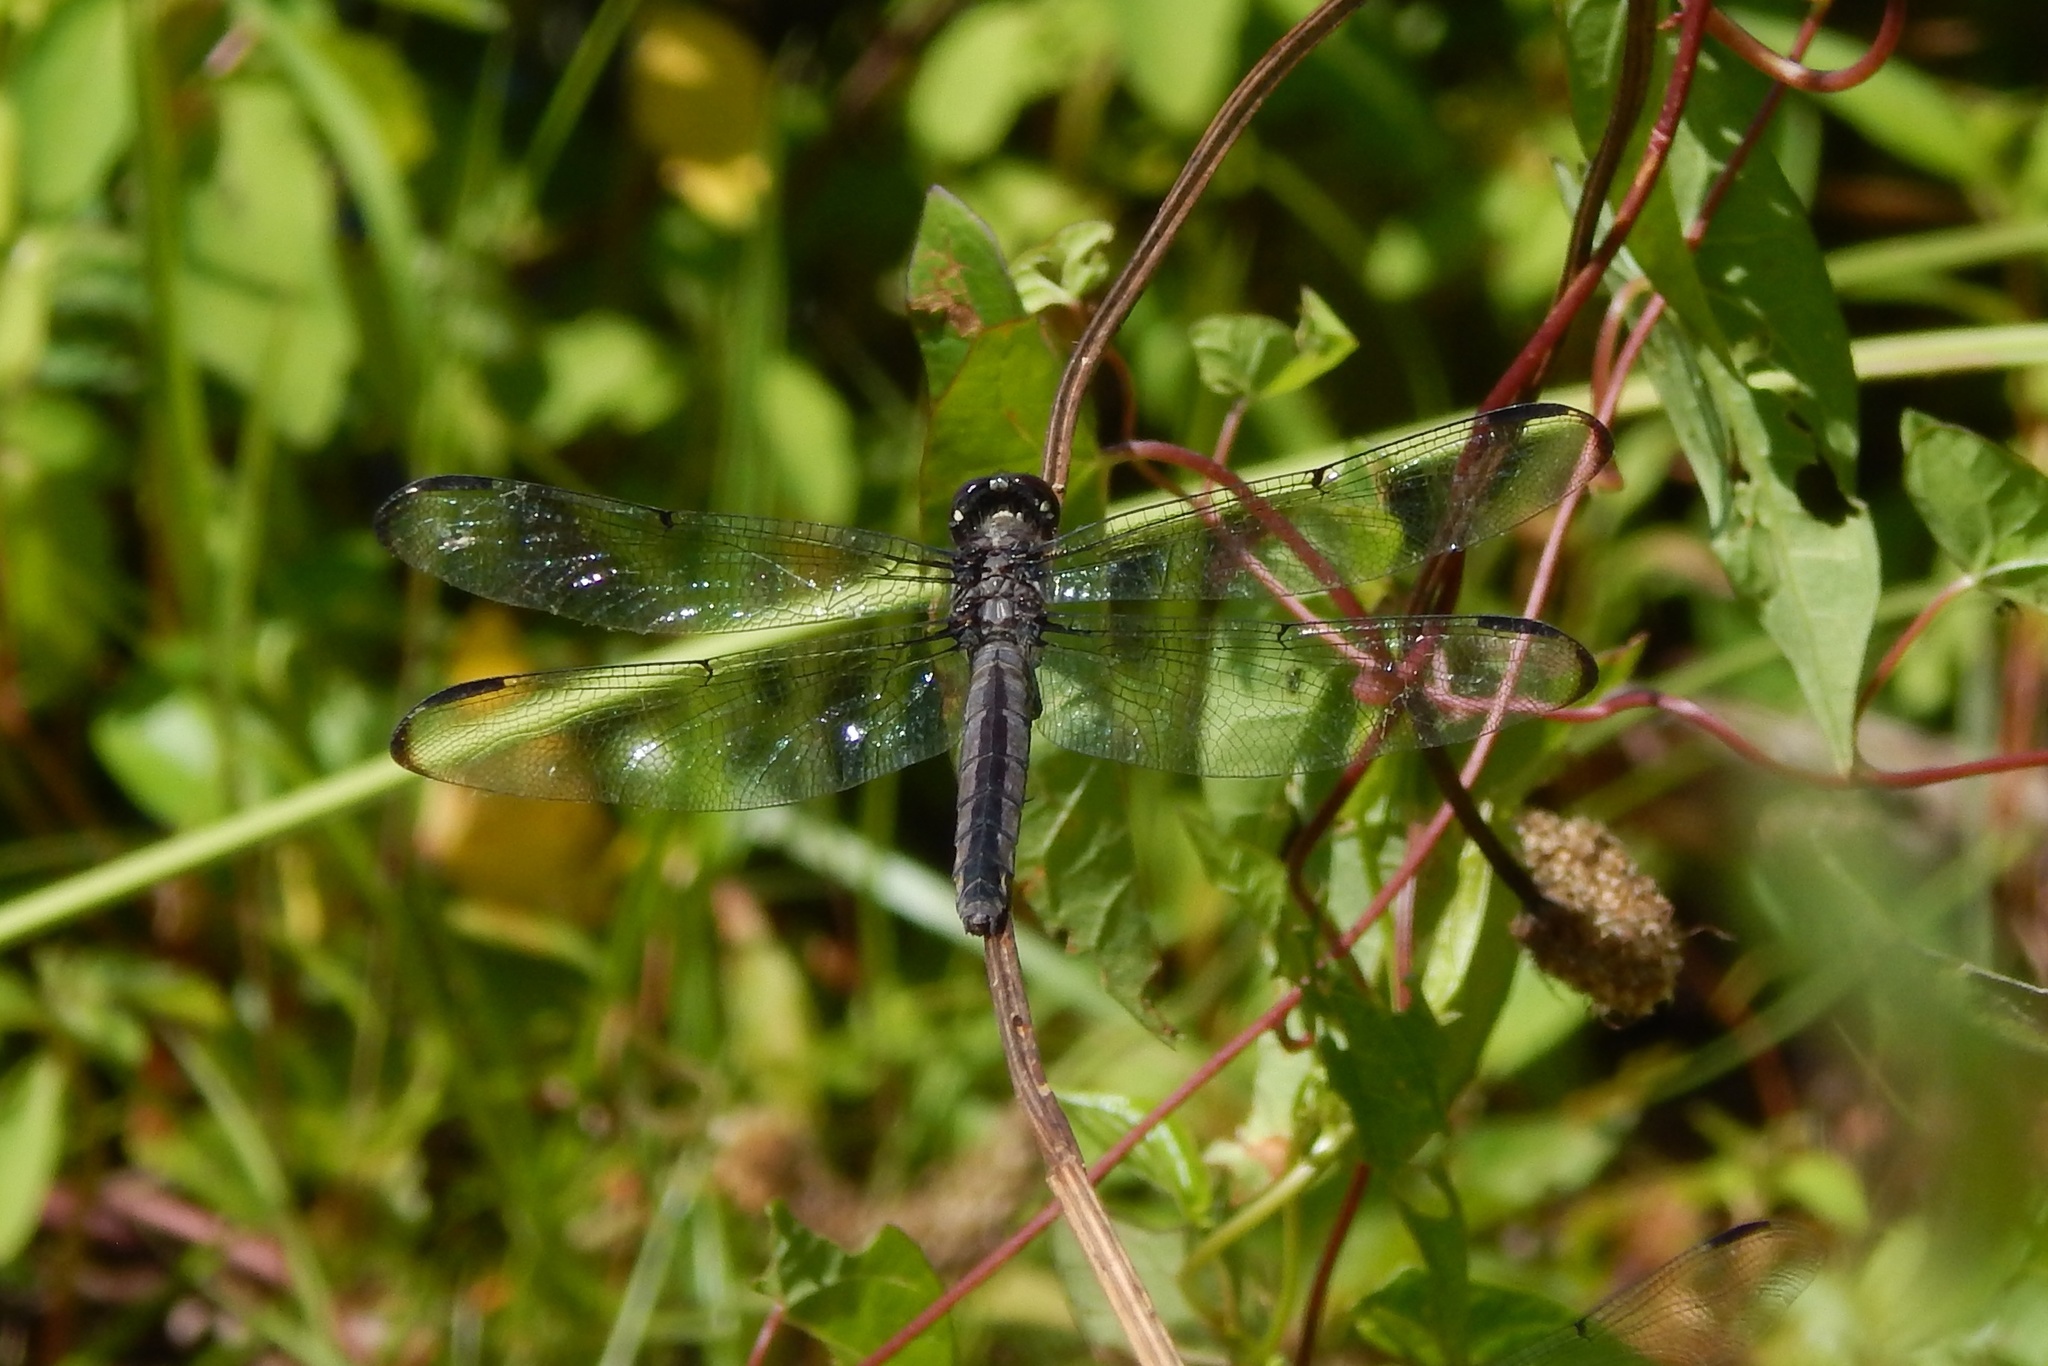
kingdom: Animalia
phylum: Arthropoda
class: Insecta
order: Odonata
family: Libellulidae
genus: Libellula
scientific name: Libellula incesta
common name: Slaty skimmer
